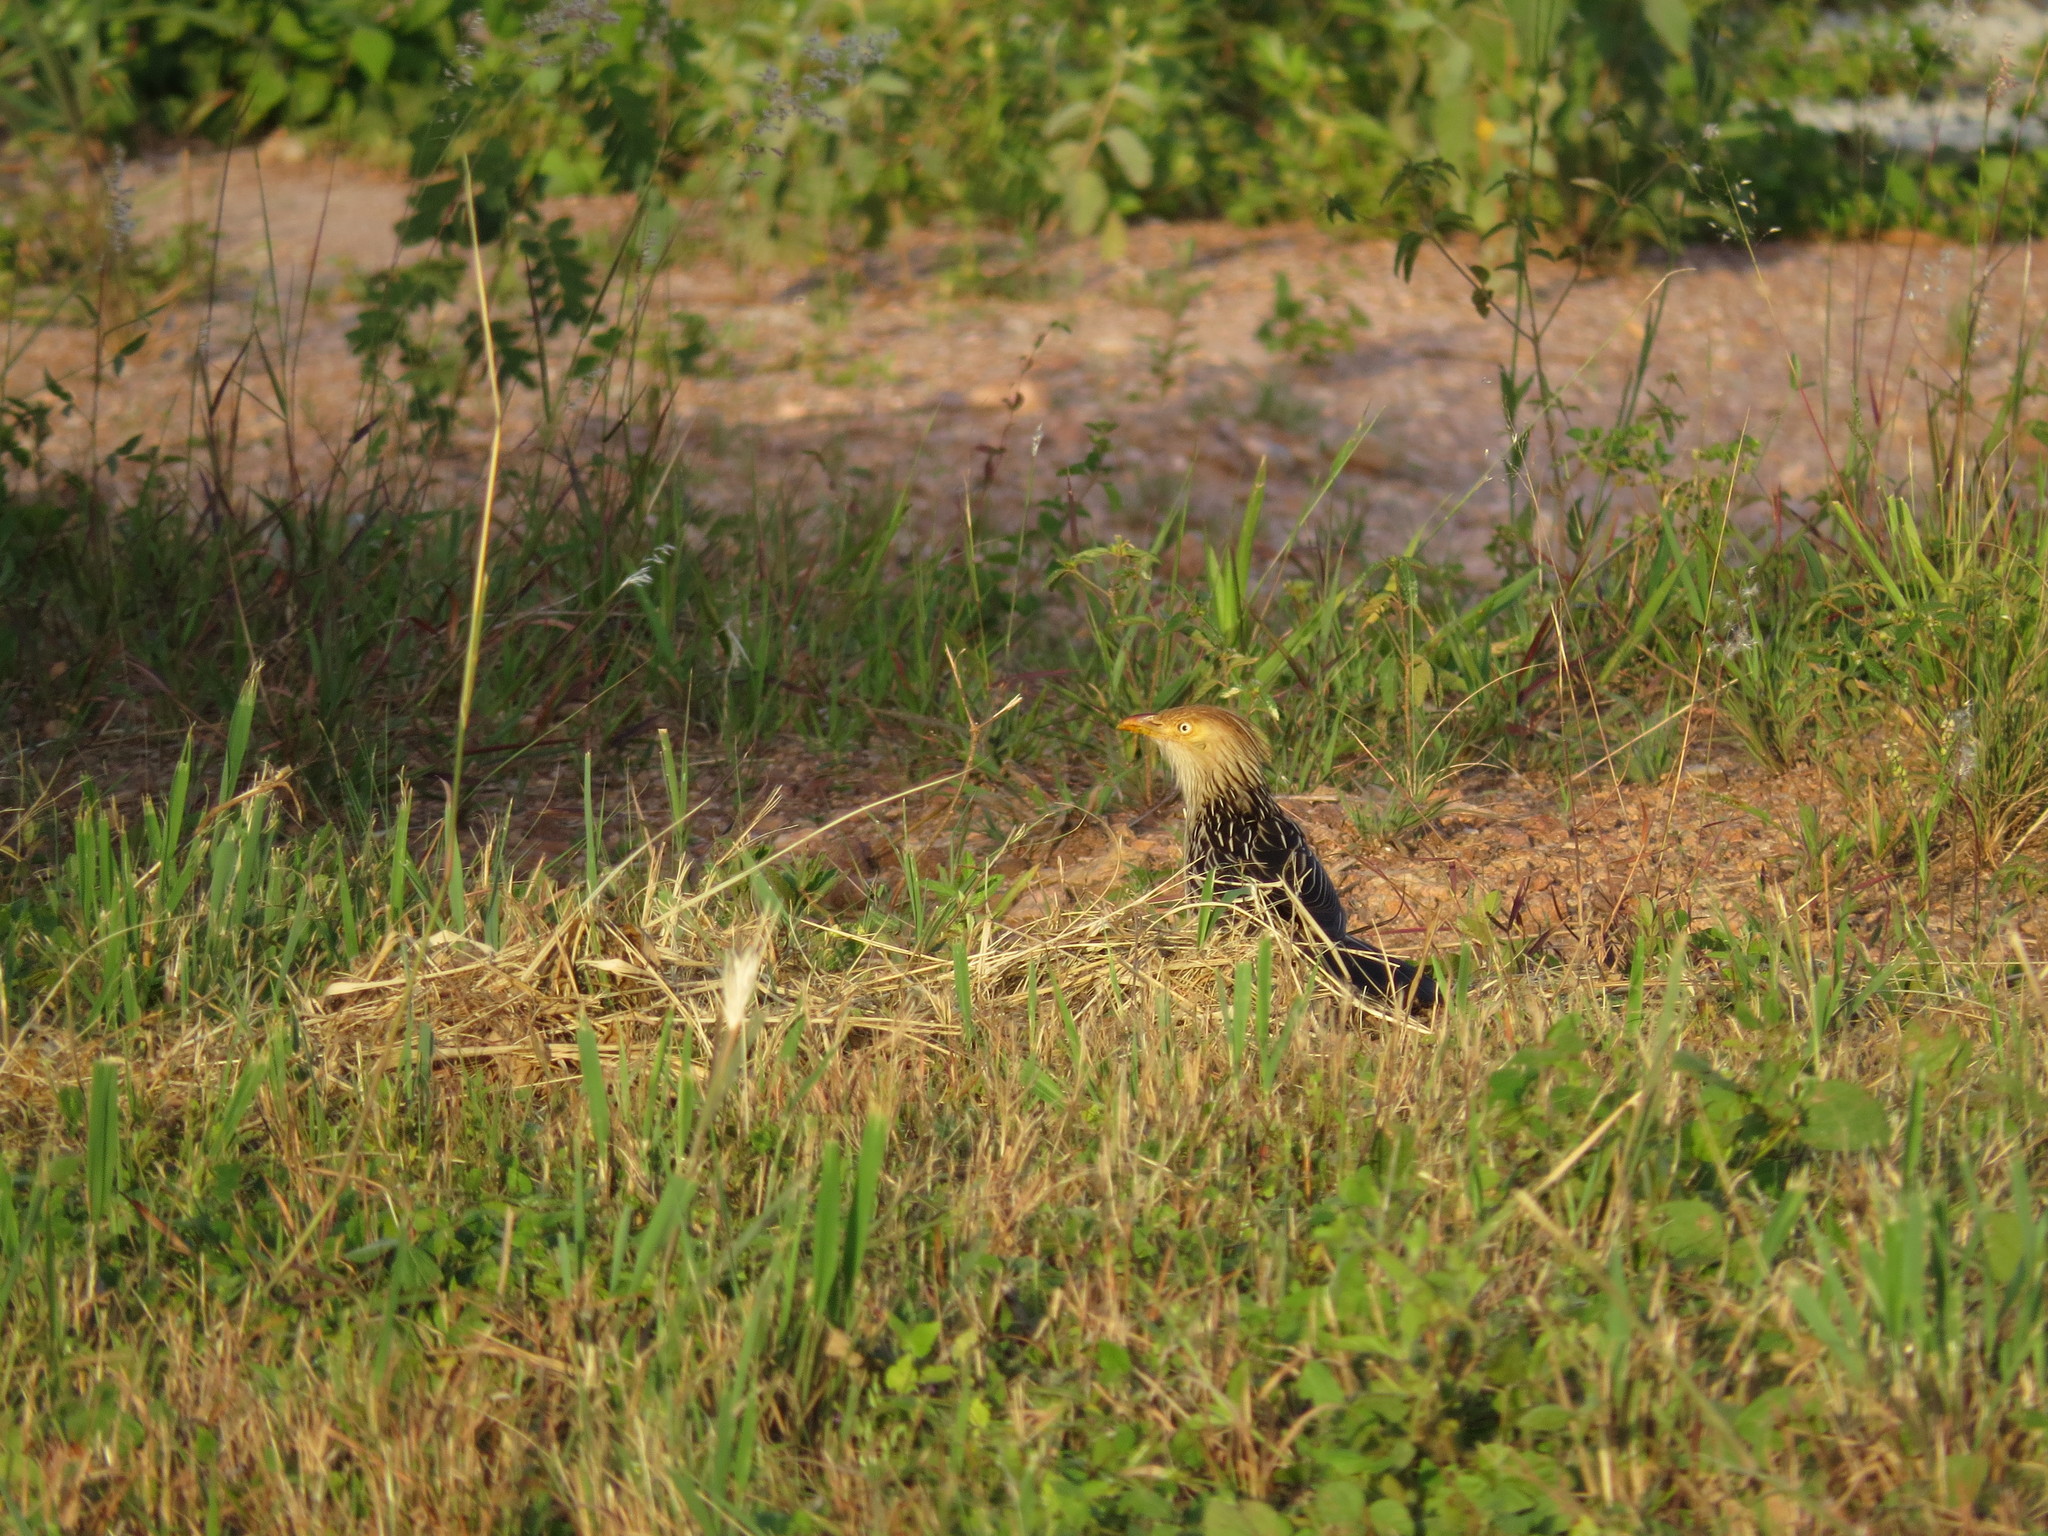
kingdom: Animalia
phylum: Chordata
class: Aves
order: Cuculiformes
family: Cuculidae
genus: Guira
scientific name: Guira guira
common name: Guira cuckoo
